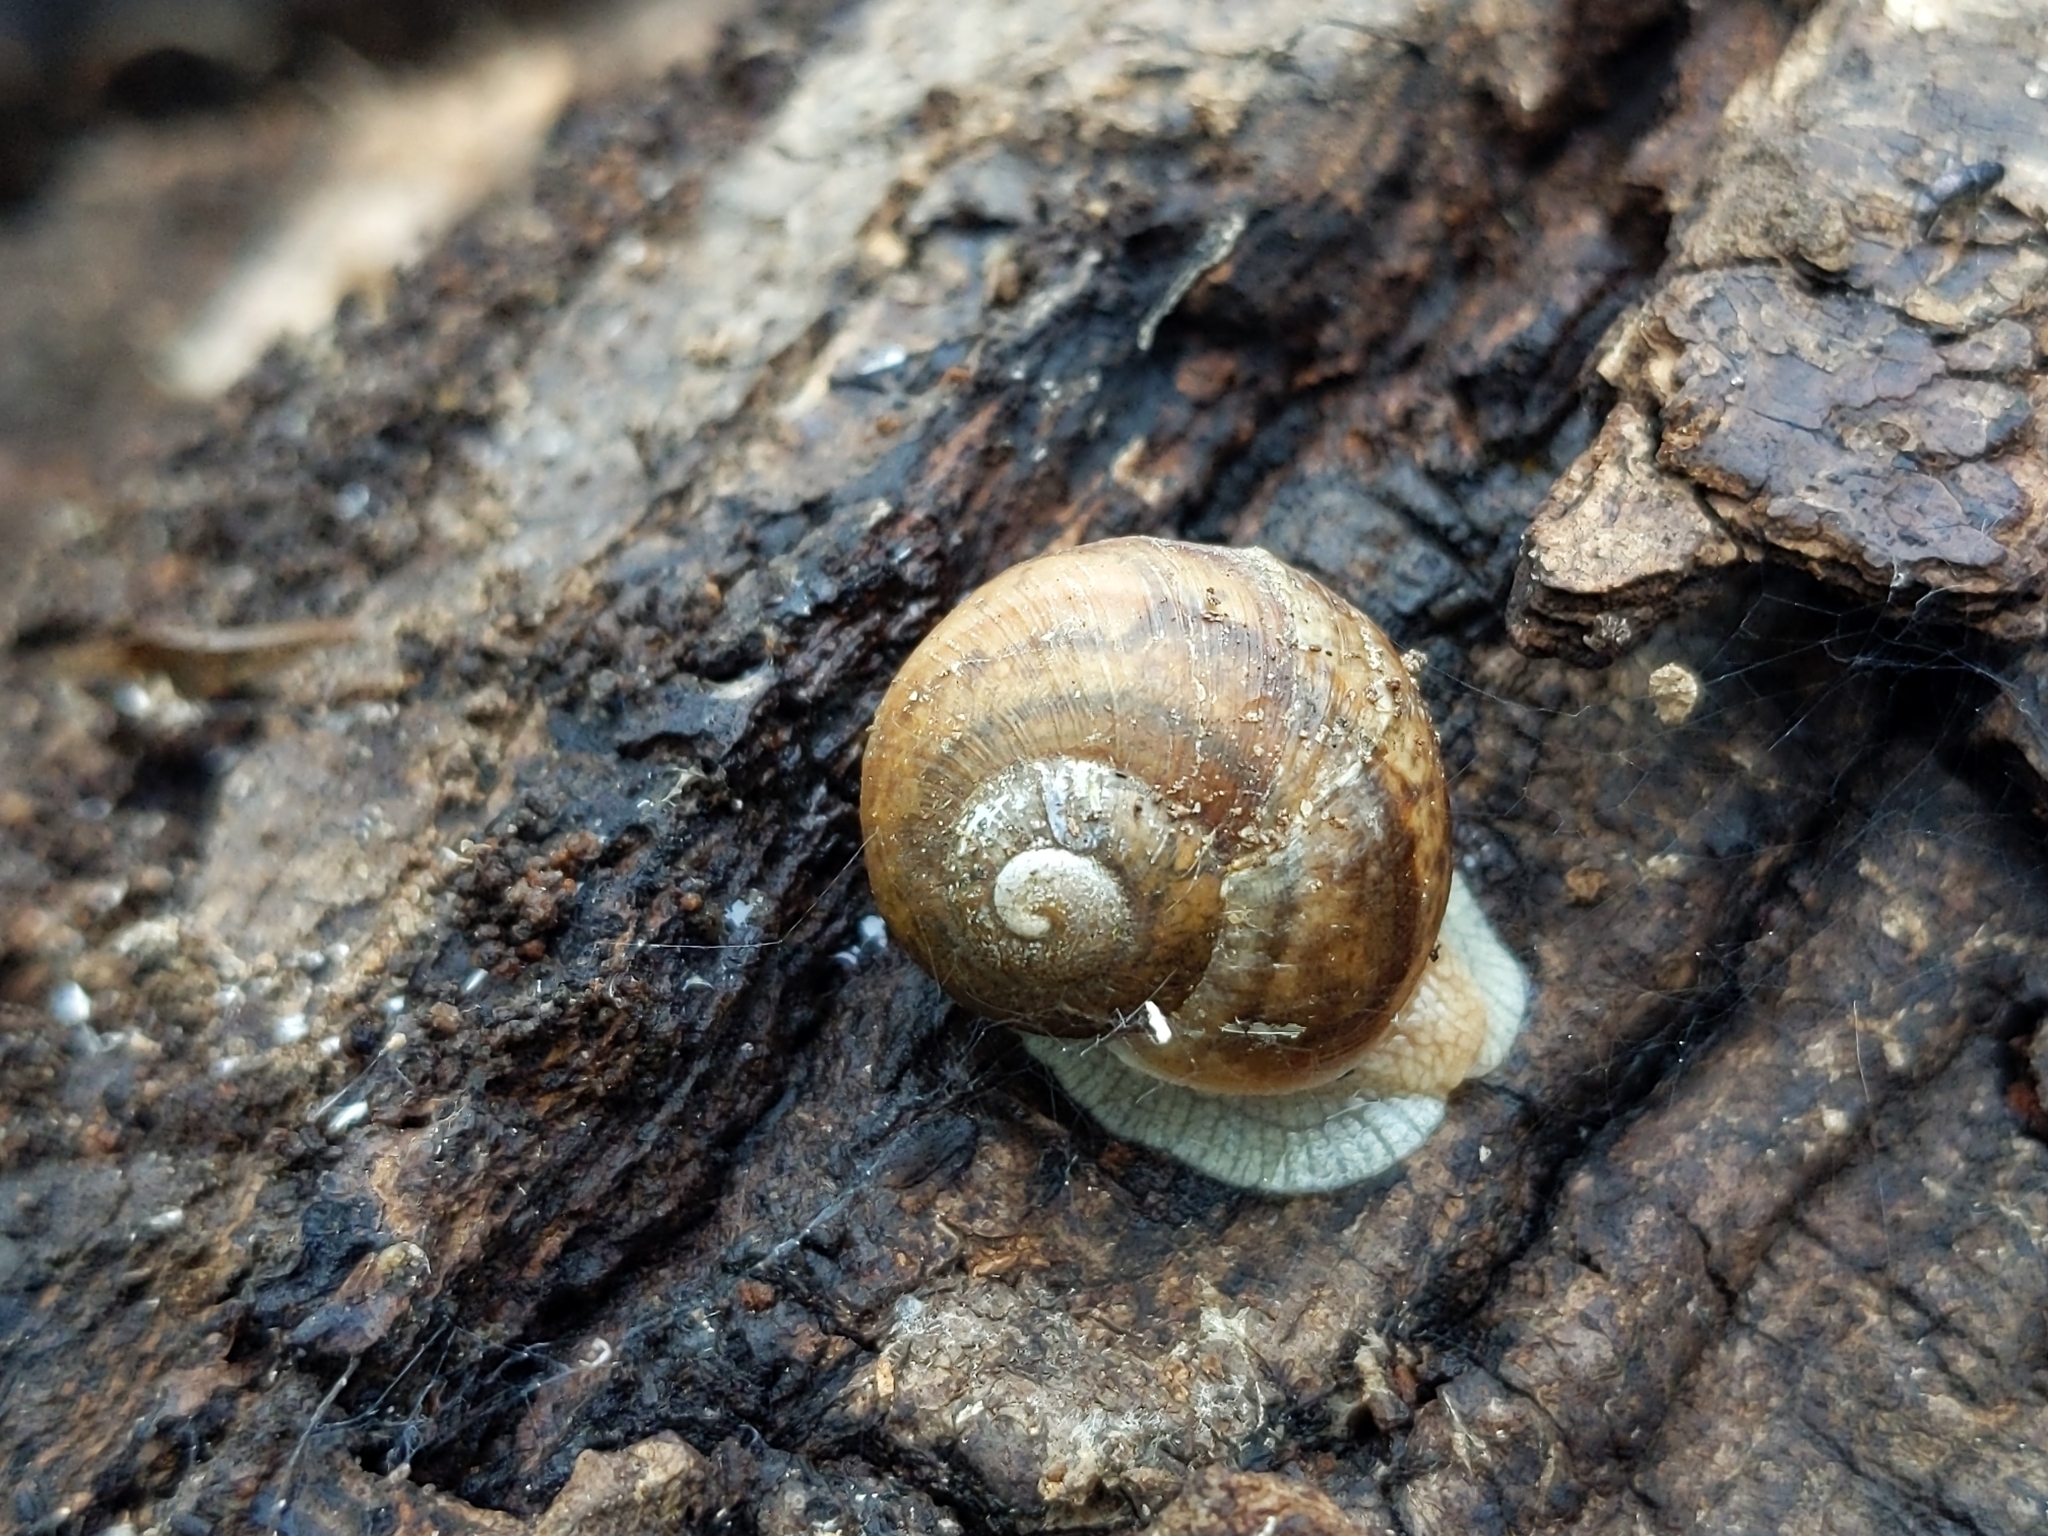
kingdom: Animalia
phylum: Mollusca
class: Gastropoda
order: Stylommatophora
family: Helicidae
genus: Helix
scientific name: Helix pomatia
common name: Roman snail
